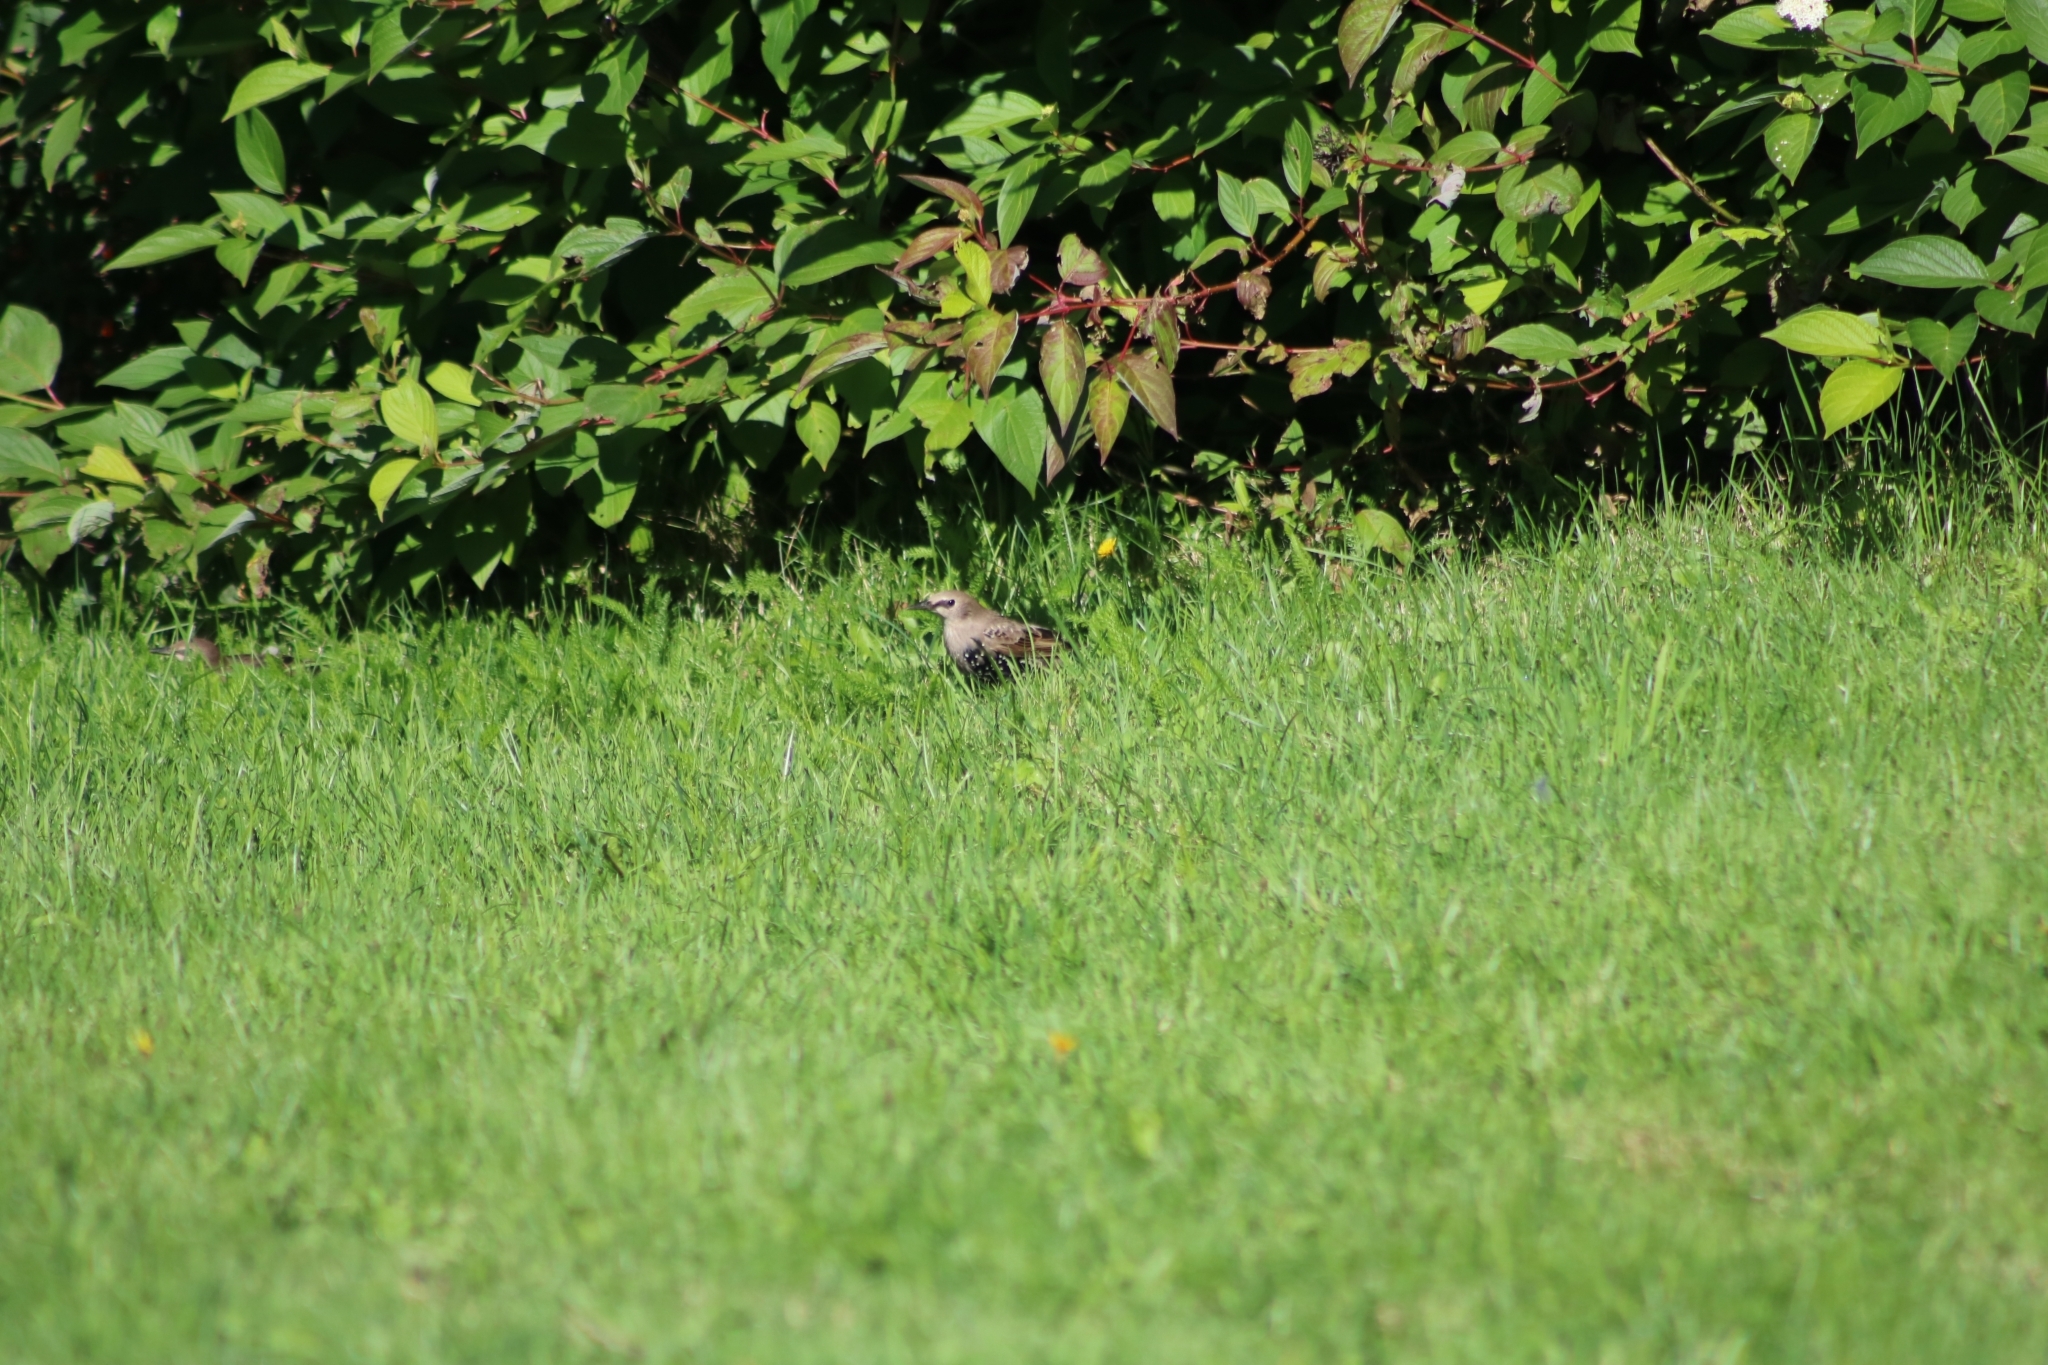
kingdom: Animalia
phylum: Chordata
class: Aves
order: Passeriformes
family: Sturnidae
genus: Sturnus
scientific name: Sturnus vulgaris
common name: Common starling
